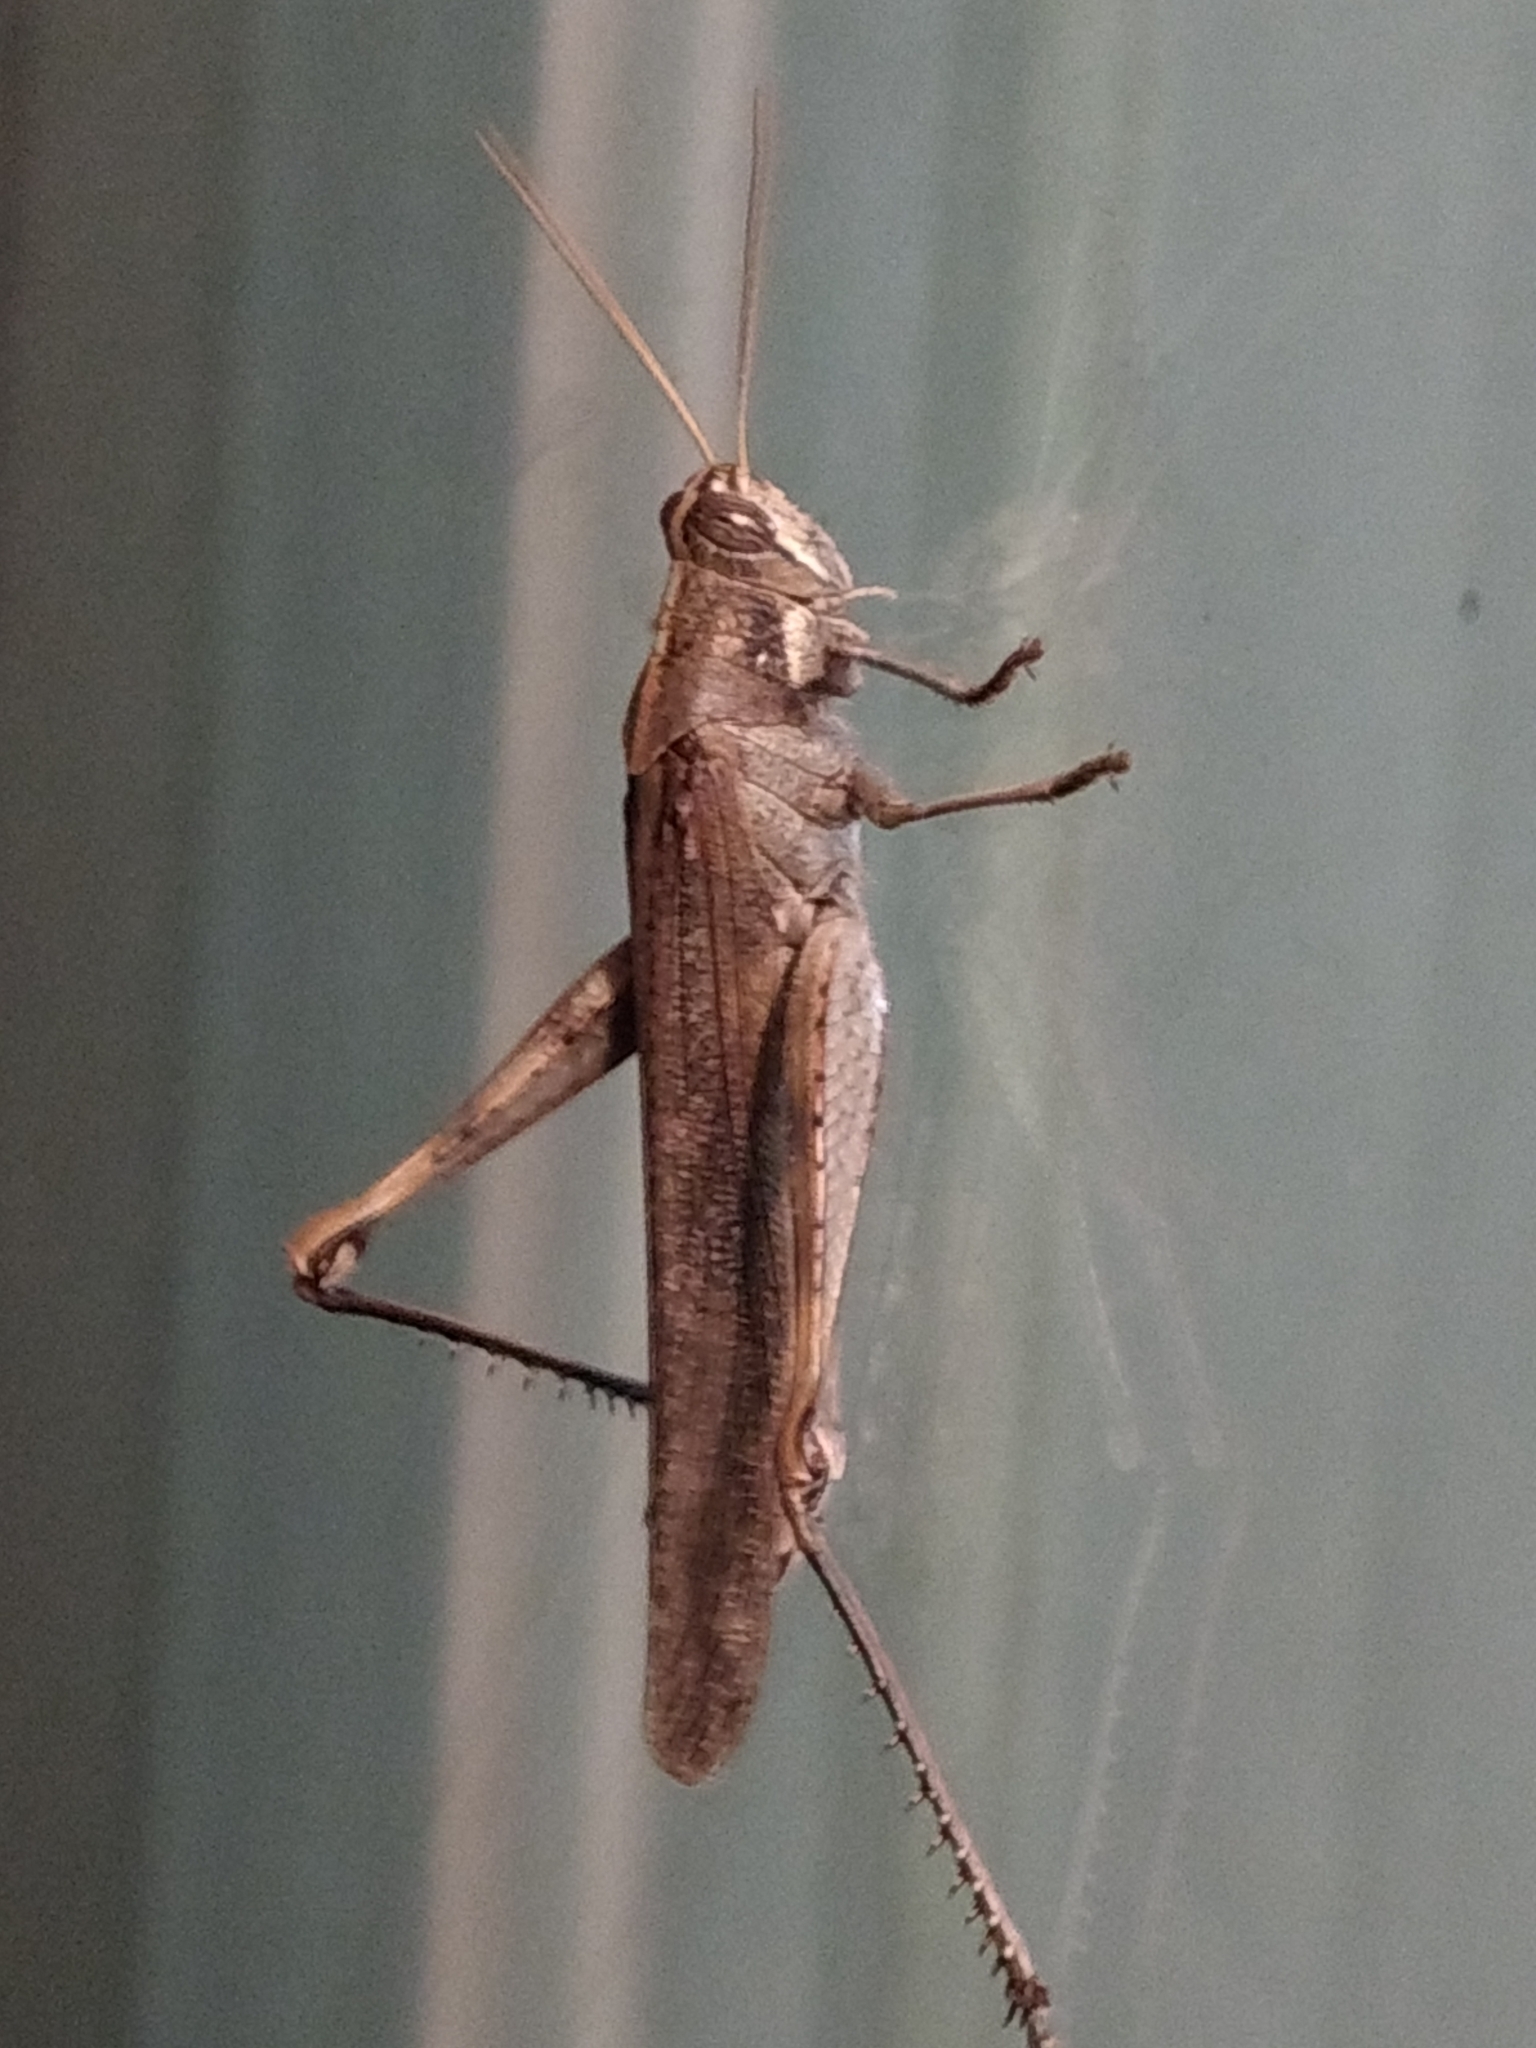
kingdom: Animalia
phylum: Arthropoda
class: Insecta
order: Orthoptera
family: Acrididae
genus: Schistocerca
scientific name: Schistocerca nitens
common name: Vagrant grasshopper
